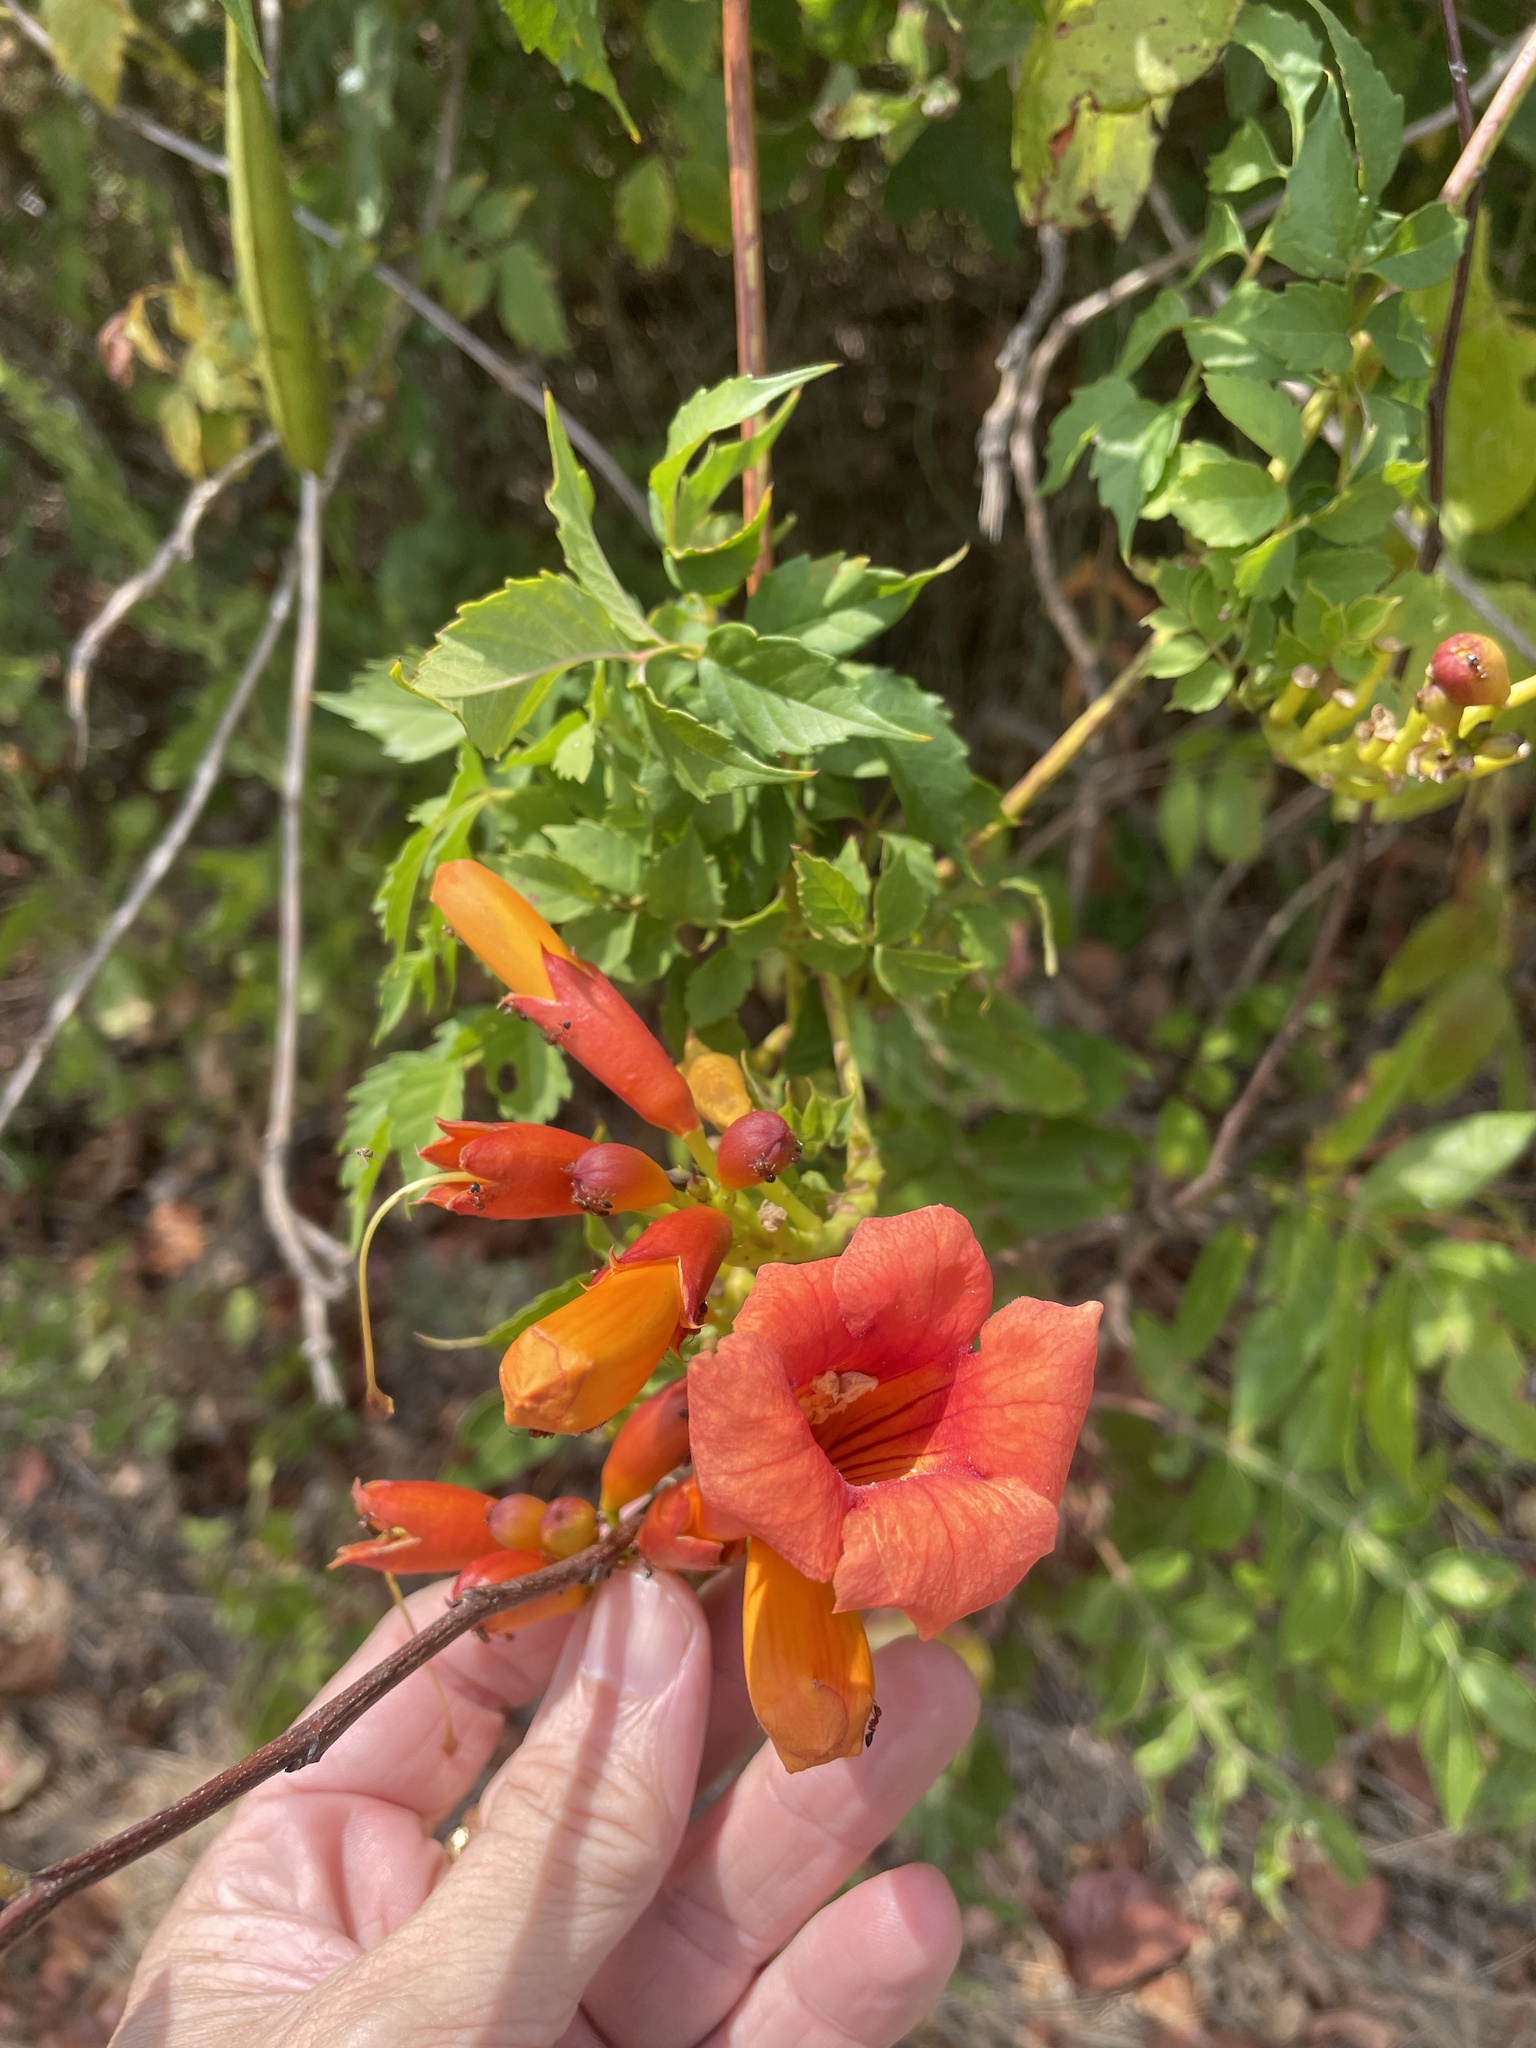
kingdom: Plantae
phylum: Tracheophyta
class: Magnoliopsida
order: Lamiales
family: Bignoniaceae
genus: Campsis
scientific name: Campsis radicans
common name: Trumpet-creeper
